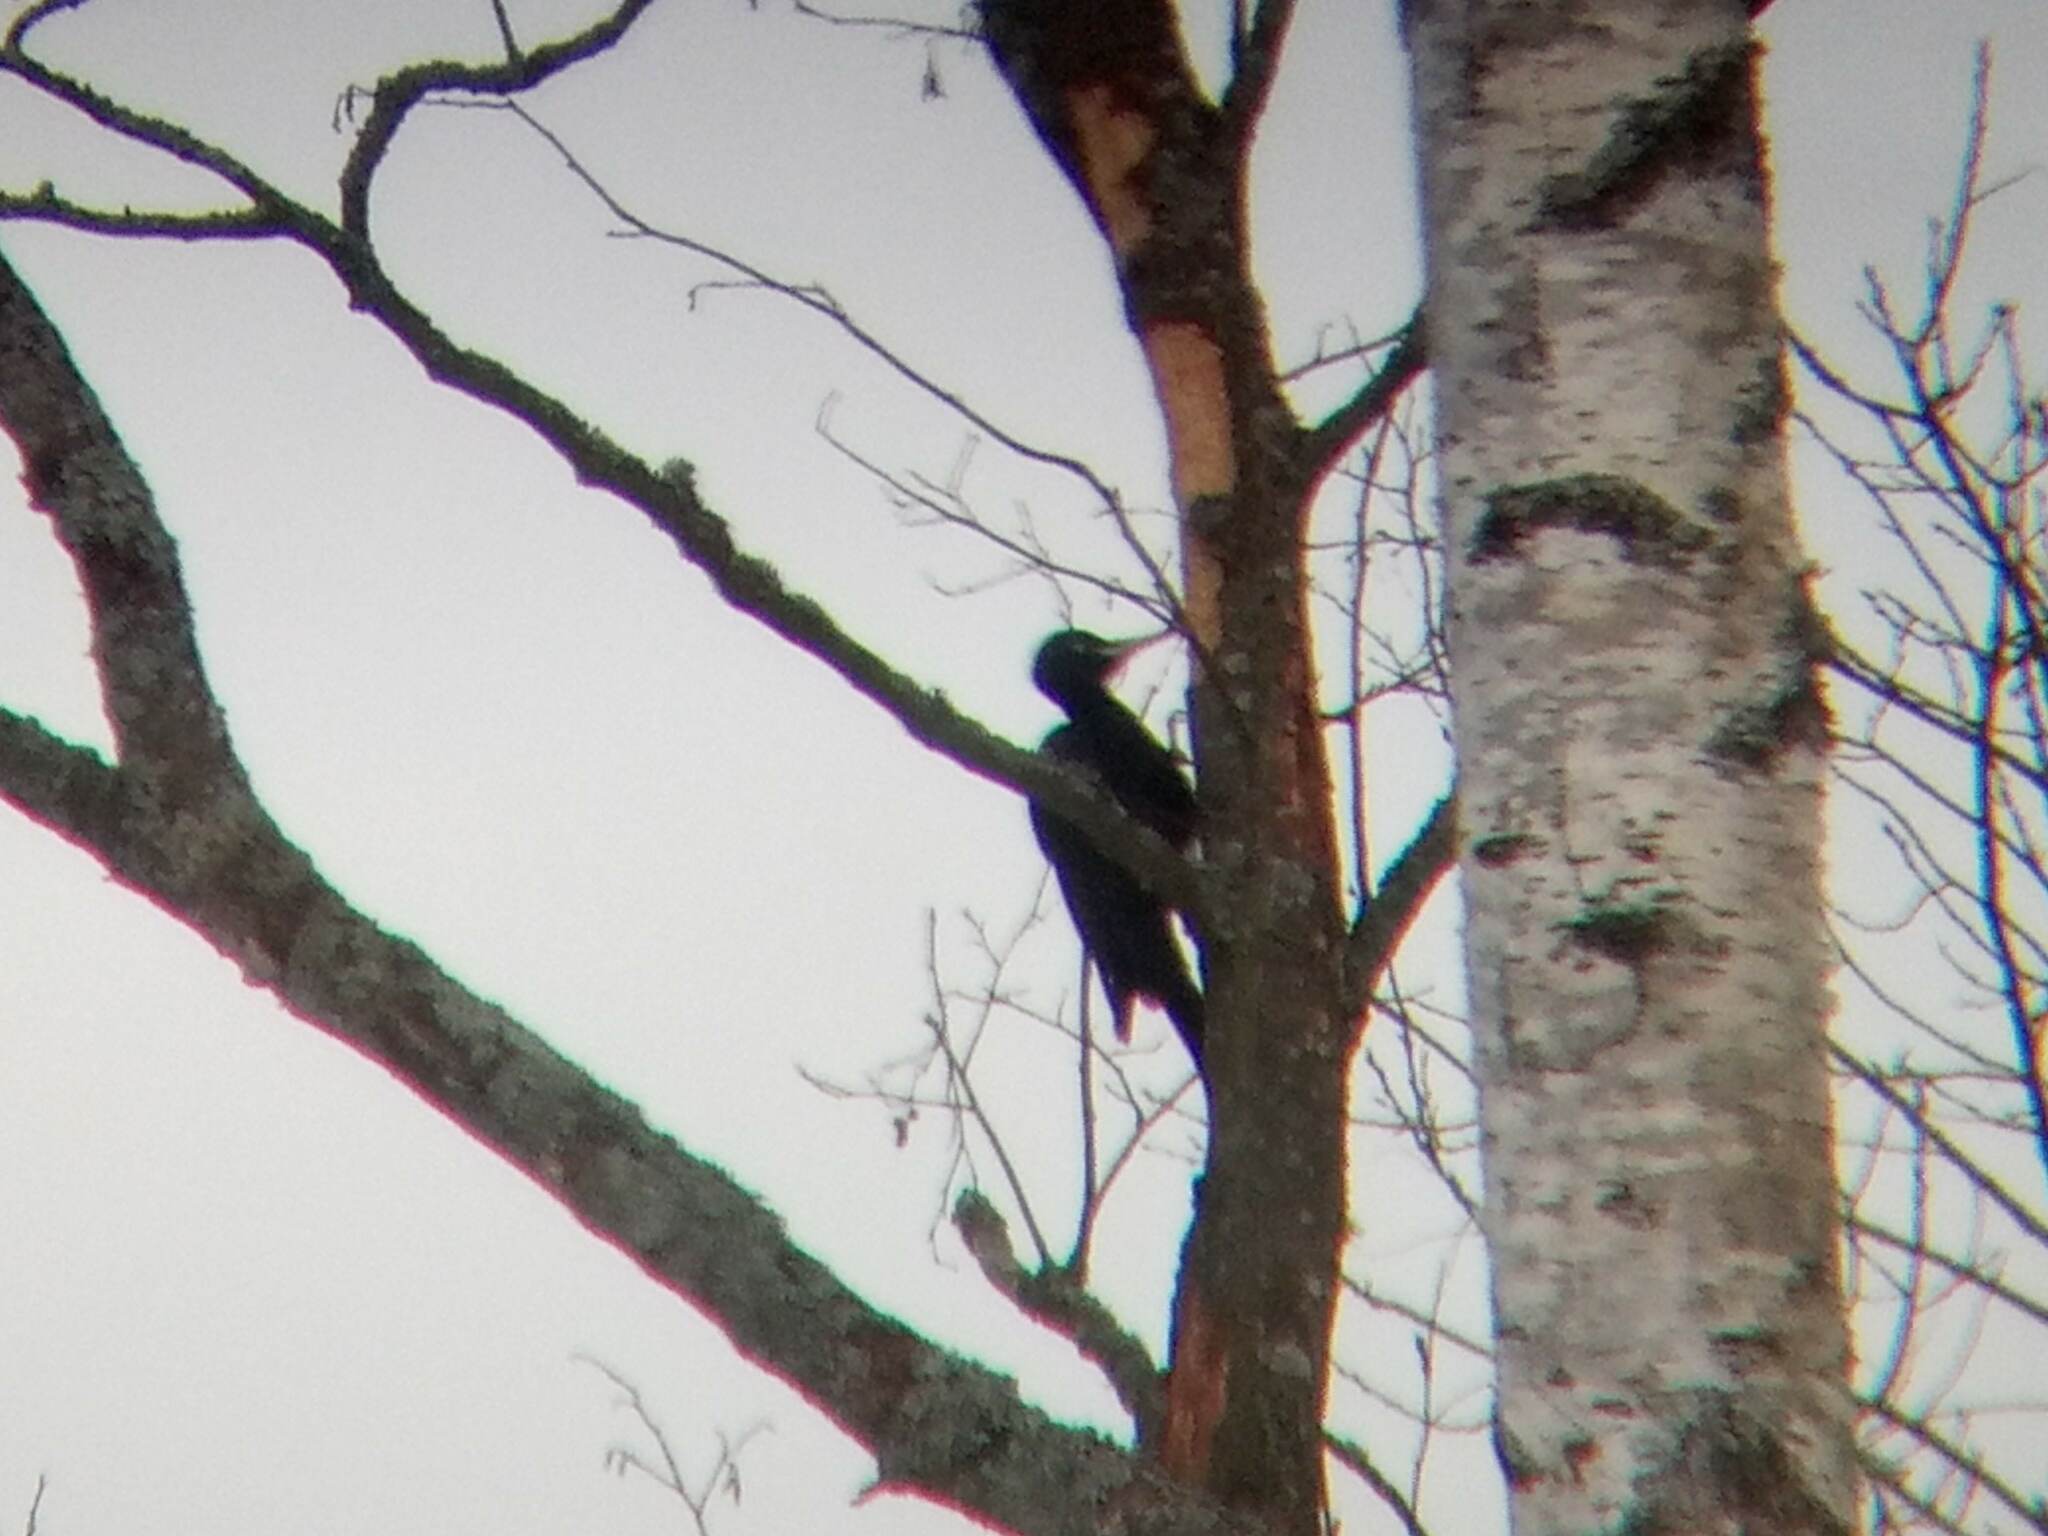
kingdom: Animalia
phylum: Chordata
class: Aves
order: Piciformes
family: Picidae
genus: Dryocopus
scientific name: Dryocopus martius
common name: Black woodpecker
